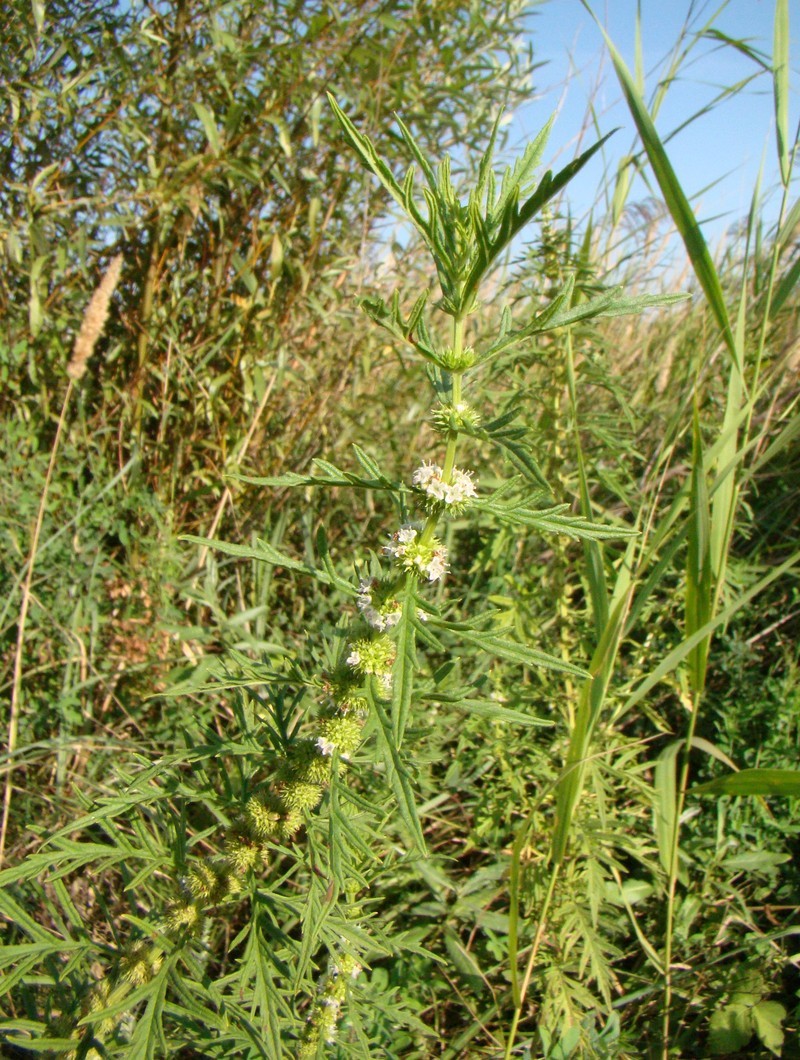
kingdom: Plantae
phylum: Tracheophyta
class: Magnoliopsida
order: Lamiales
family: Lamiaceae
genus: Lycopus
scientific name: Lycopus exaltatus
